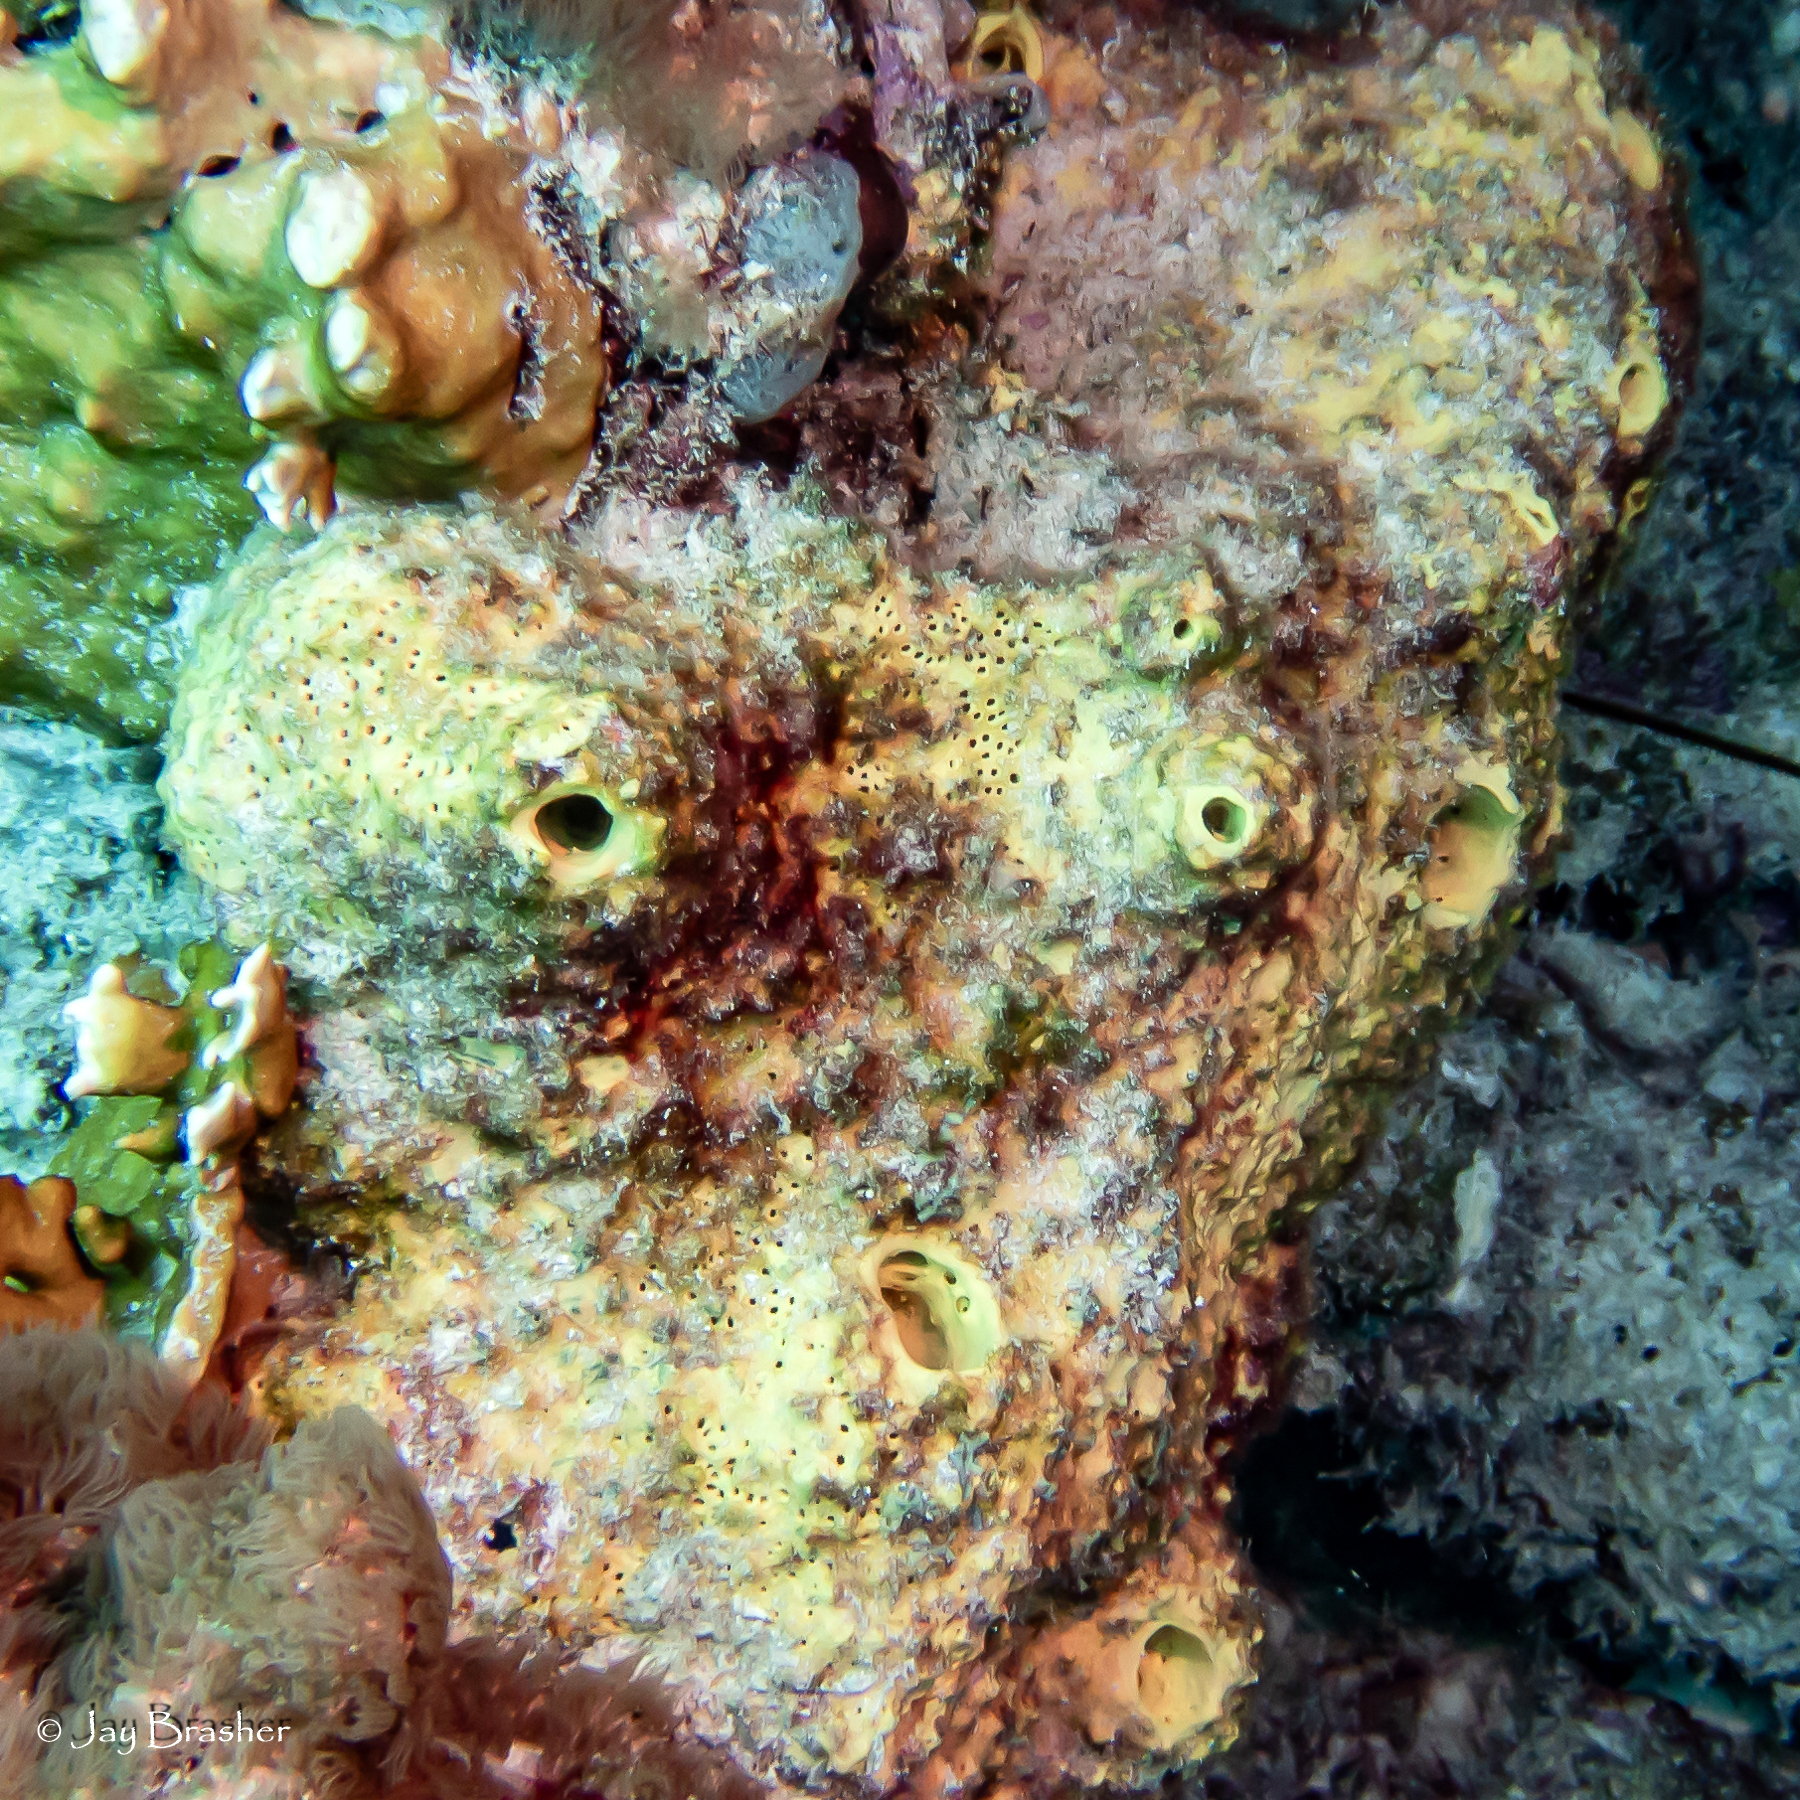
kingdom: Animalia
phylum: Porifera
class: Demospongiae
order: Verongiida
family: Aplysinidae
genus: Aiolochroia
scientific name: Aiolochroia crassa
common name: Branching tube sponge
